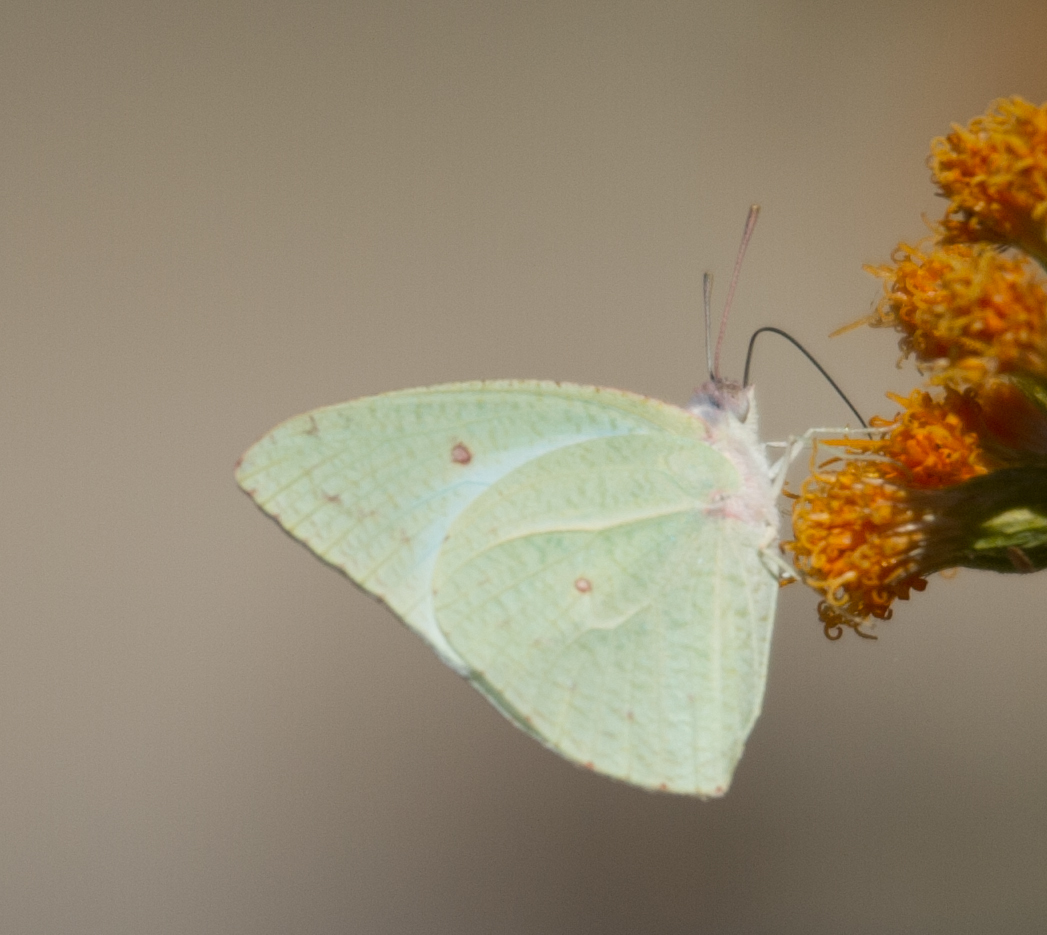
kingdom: Animalia
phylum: Arthropoda
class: Insecta
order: Lepidoptera
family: Pieridae
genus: Catopsilia
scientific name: Catopsilia florella
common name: African migrant
